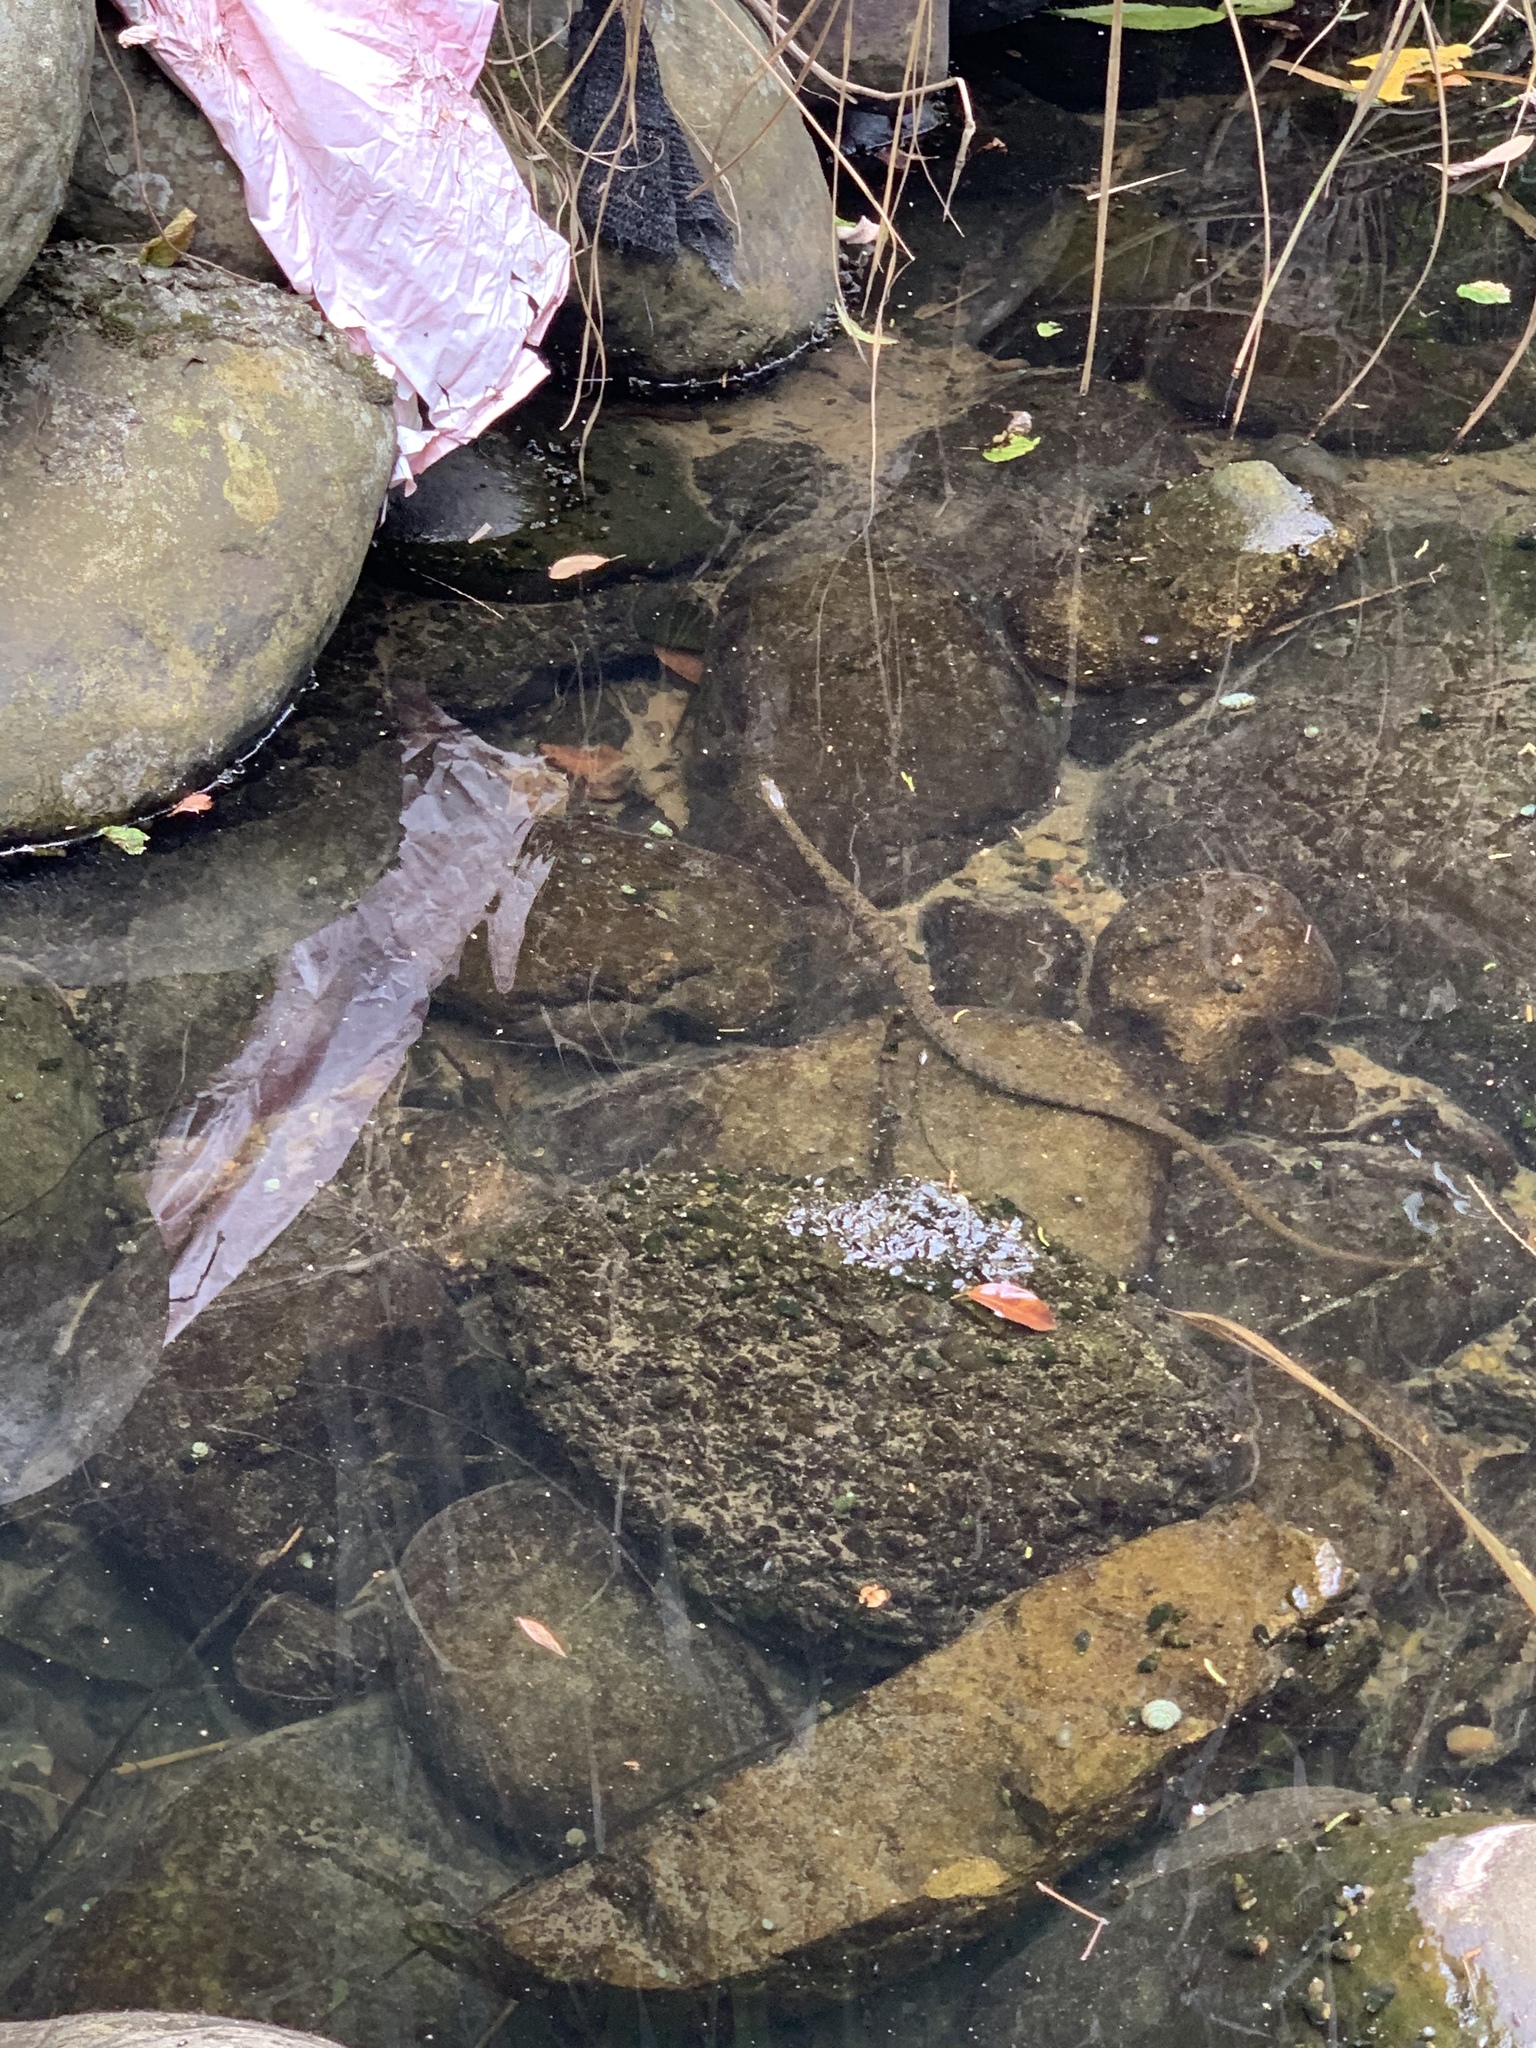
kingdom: Animalia
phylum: Chordata
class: Squamata
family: Colubridae
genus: Trimerodytes
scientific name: Trimerodytes percarinatus
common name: Eastern water snake
